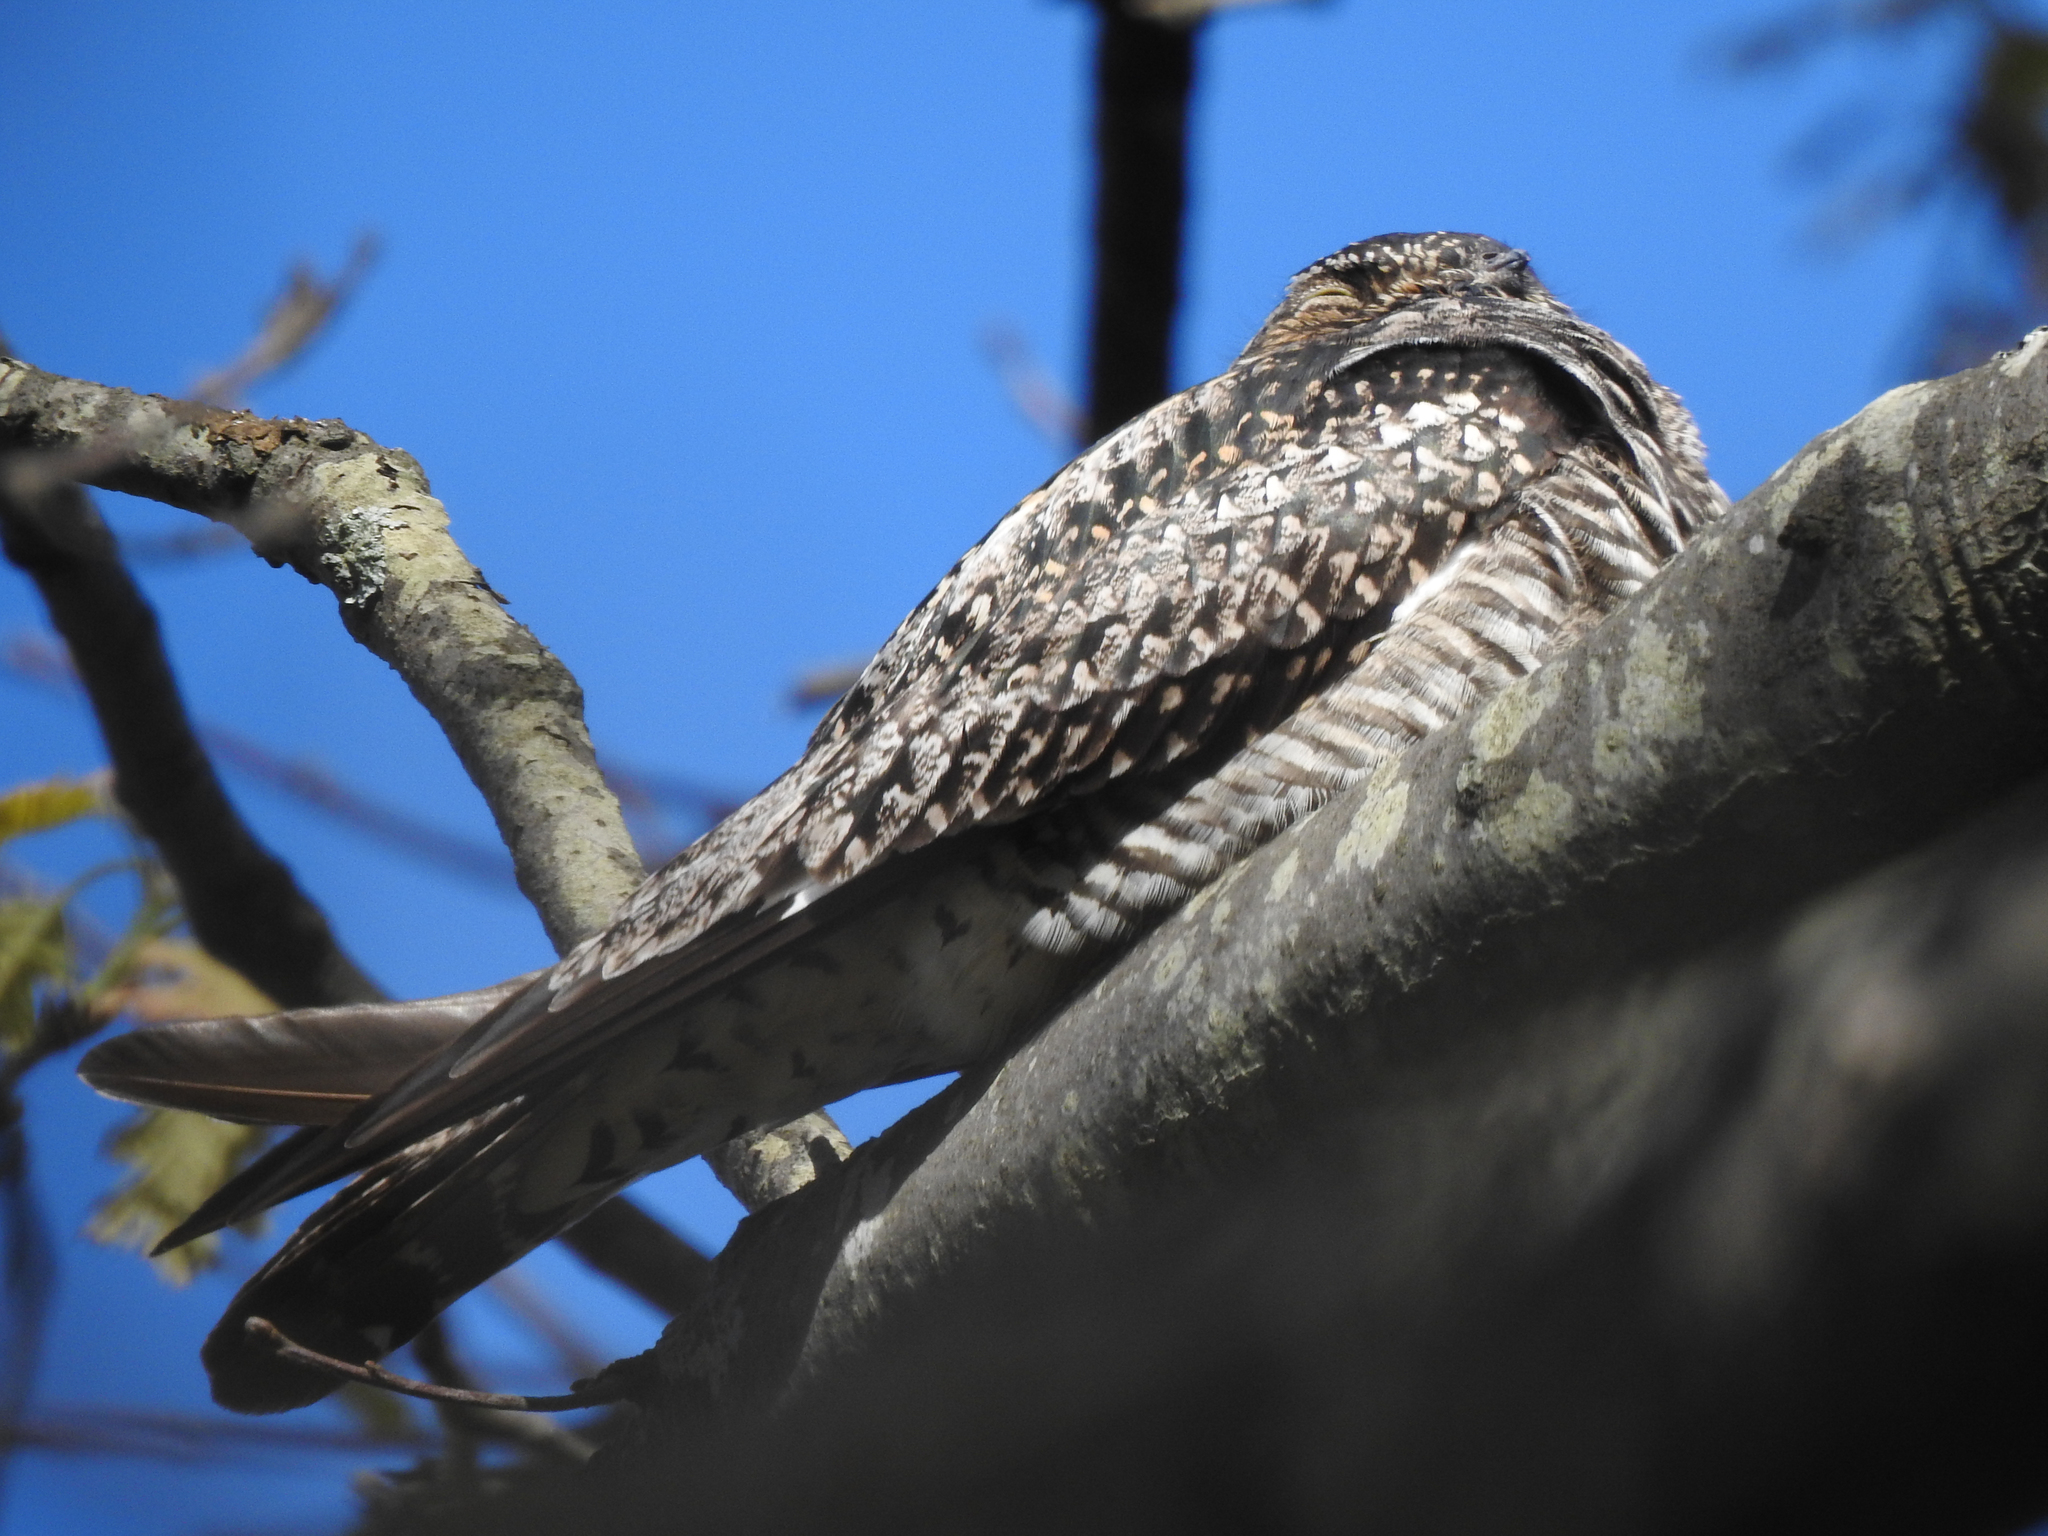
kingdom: Animalia
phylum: Chordata
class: Aves
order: Caprimulgiformes
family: Caprimulgidae
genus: Chordeiles
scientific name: Chordeiles minor
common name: Common nighthawk
